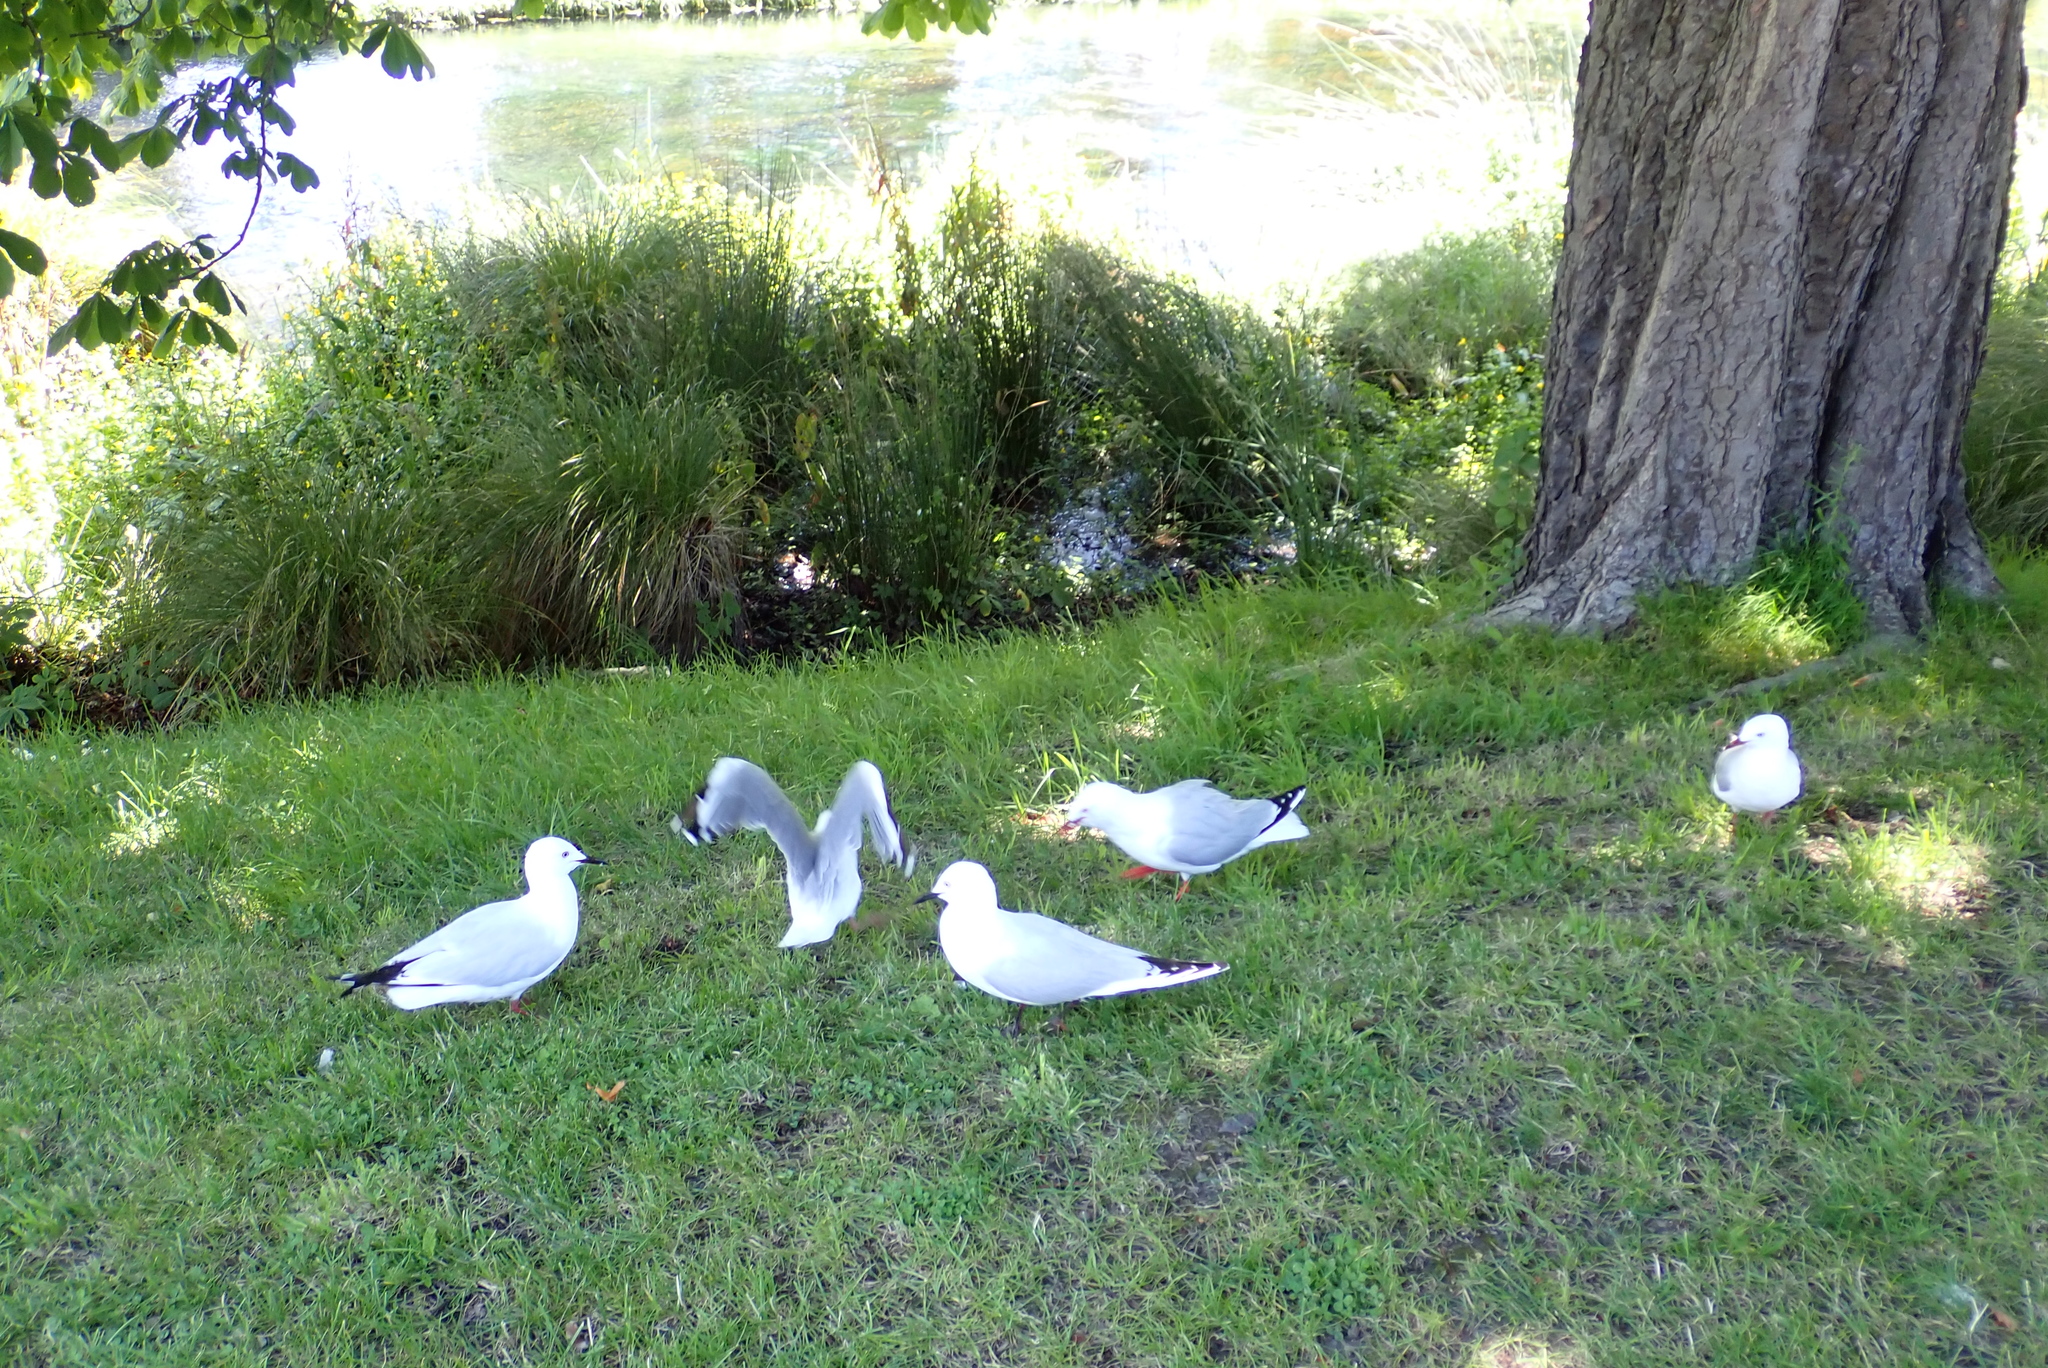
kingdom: Animalia
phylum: Chordata
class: Aves
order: Charadriiformes
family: Laridae
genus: Chroicocephalus
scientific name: Chroicocephalus bulleri
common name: Black-billed gull
